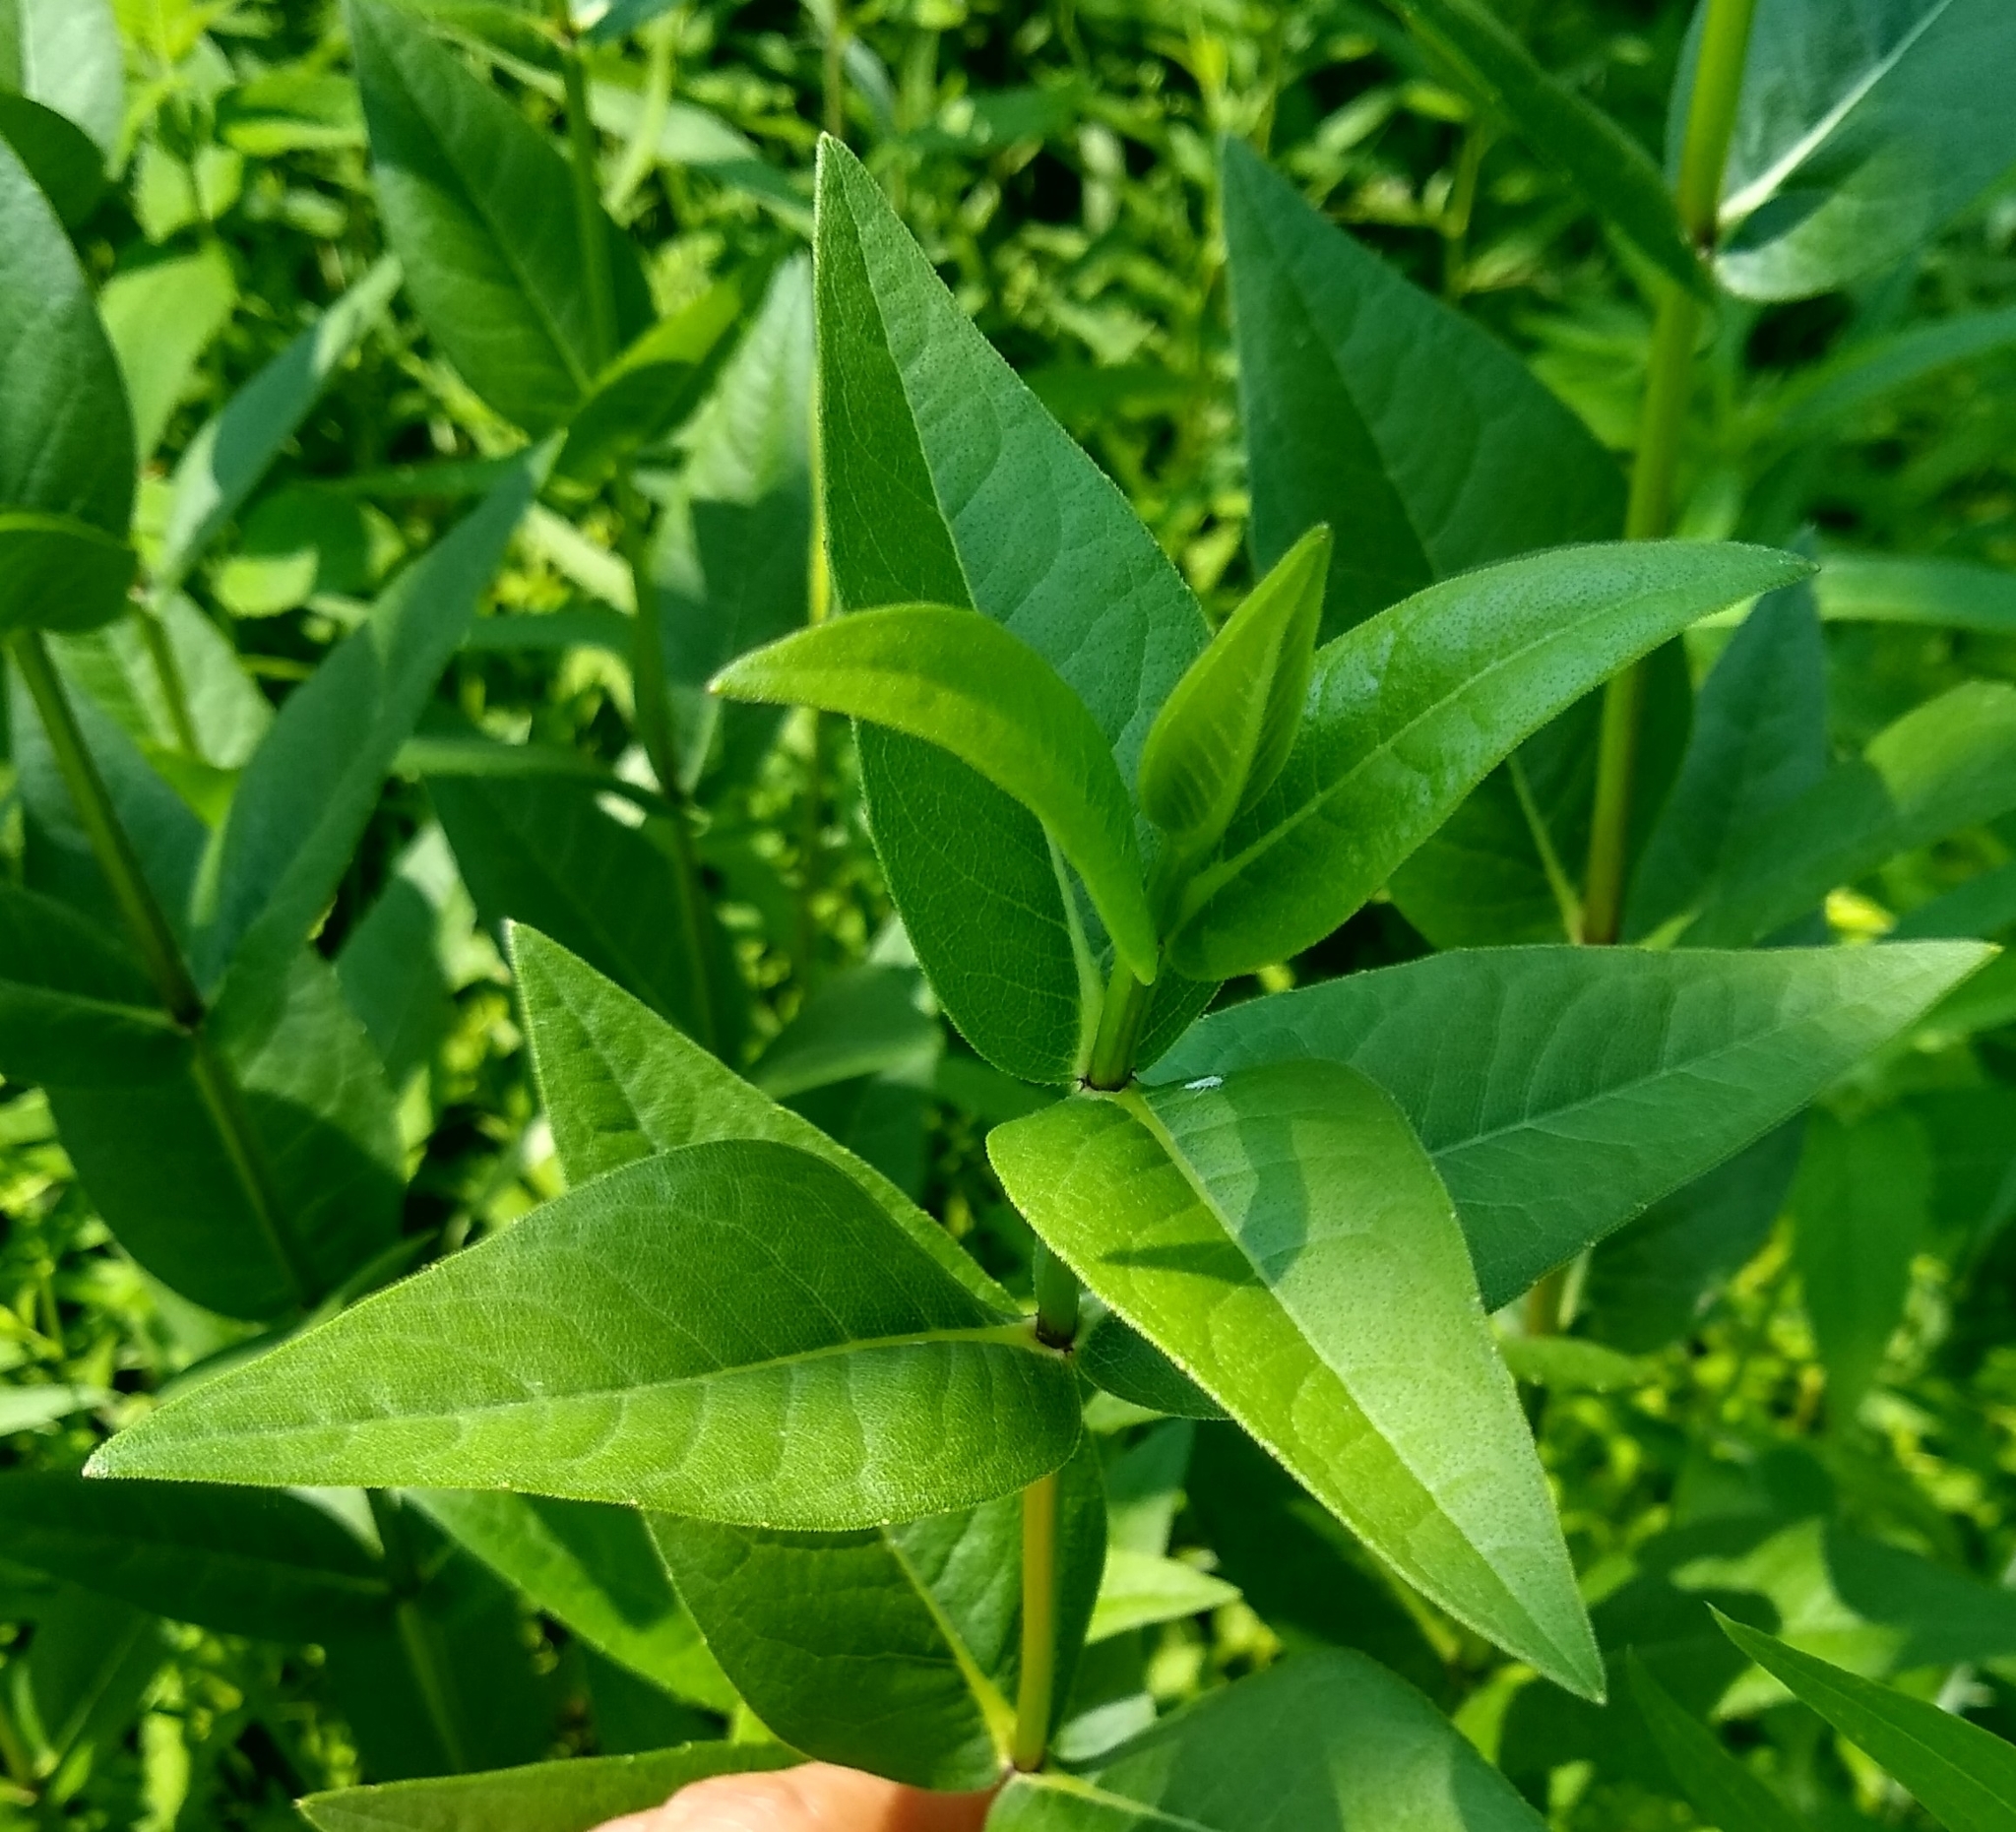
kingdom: Plantae
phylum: Tracheophyta
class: Magnoliopsida
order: Asterales
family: Asteraceae
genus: Silphium
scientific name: Silphium integrifolium
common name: Whole-leaf rosinweed
